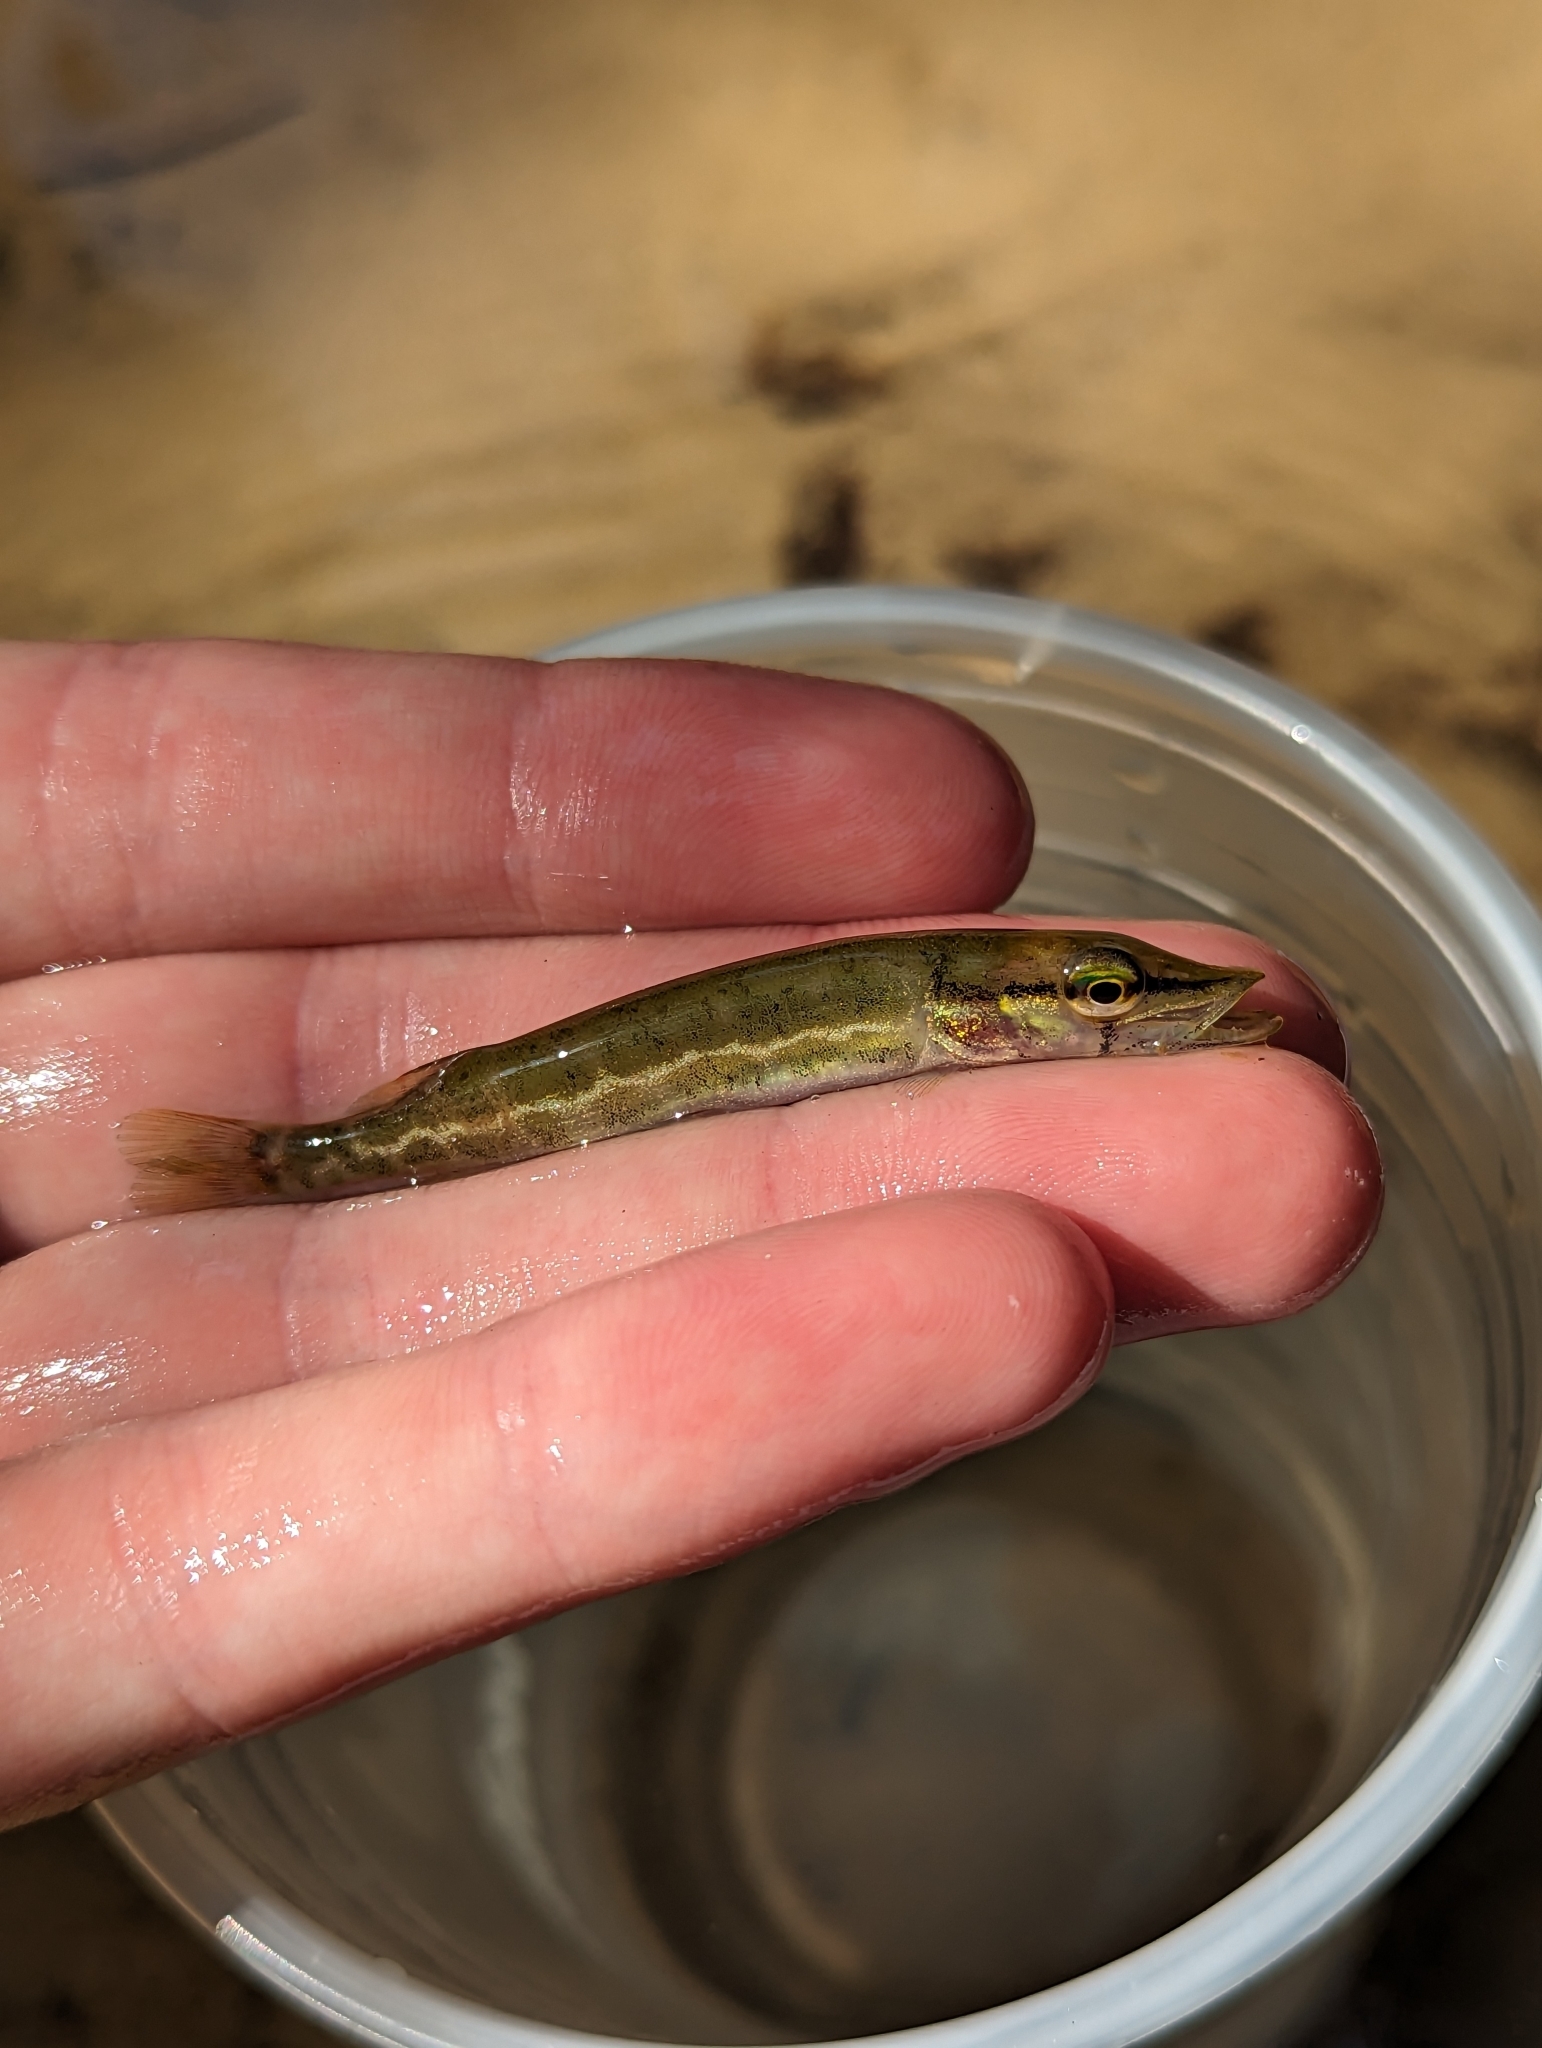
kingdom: Animalia
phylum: Chordata
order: Esociformes
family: Esocidae
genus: Esox
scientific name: Esox americanus
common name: Redfin pickerel
